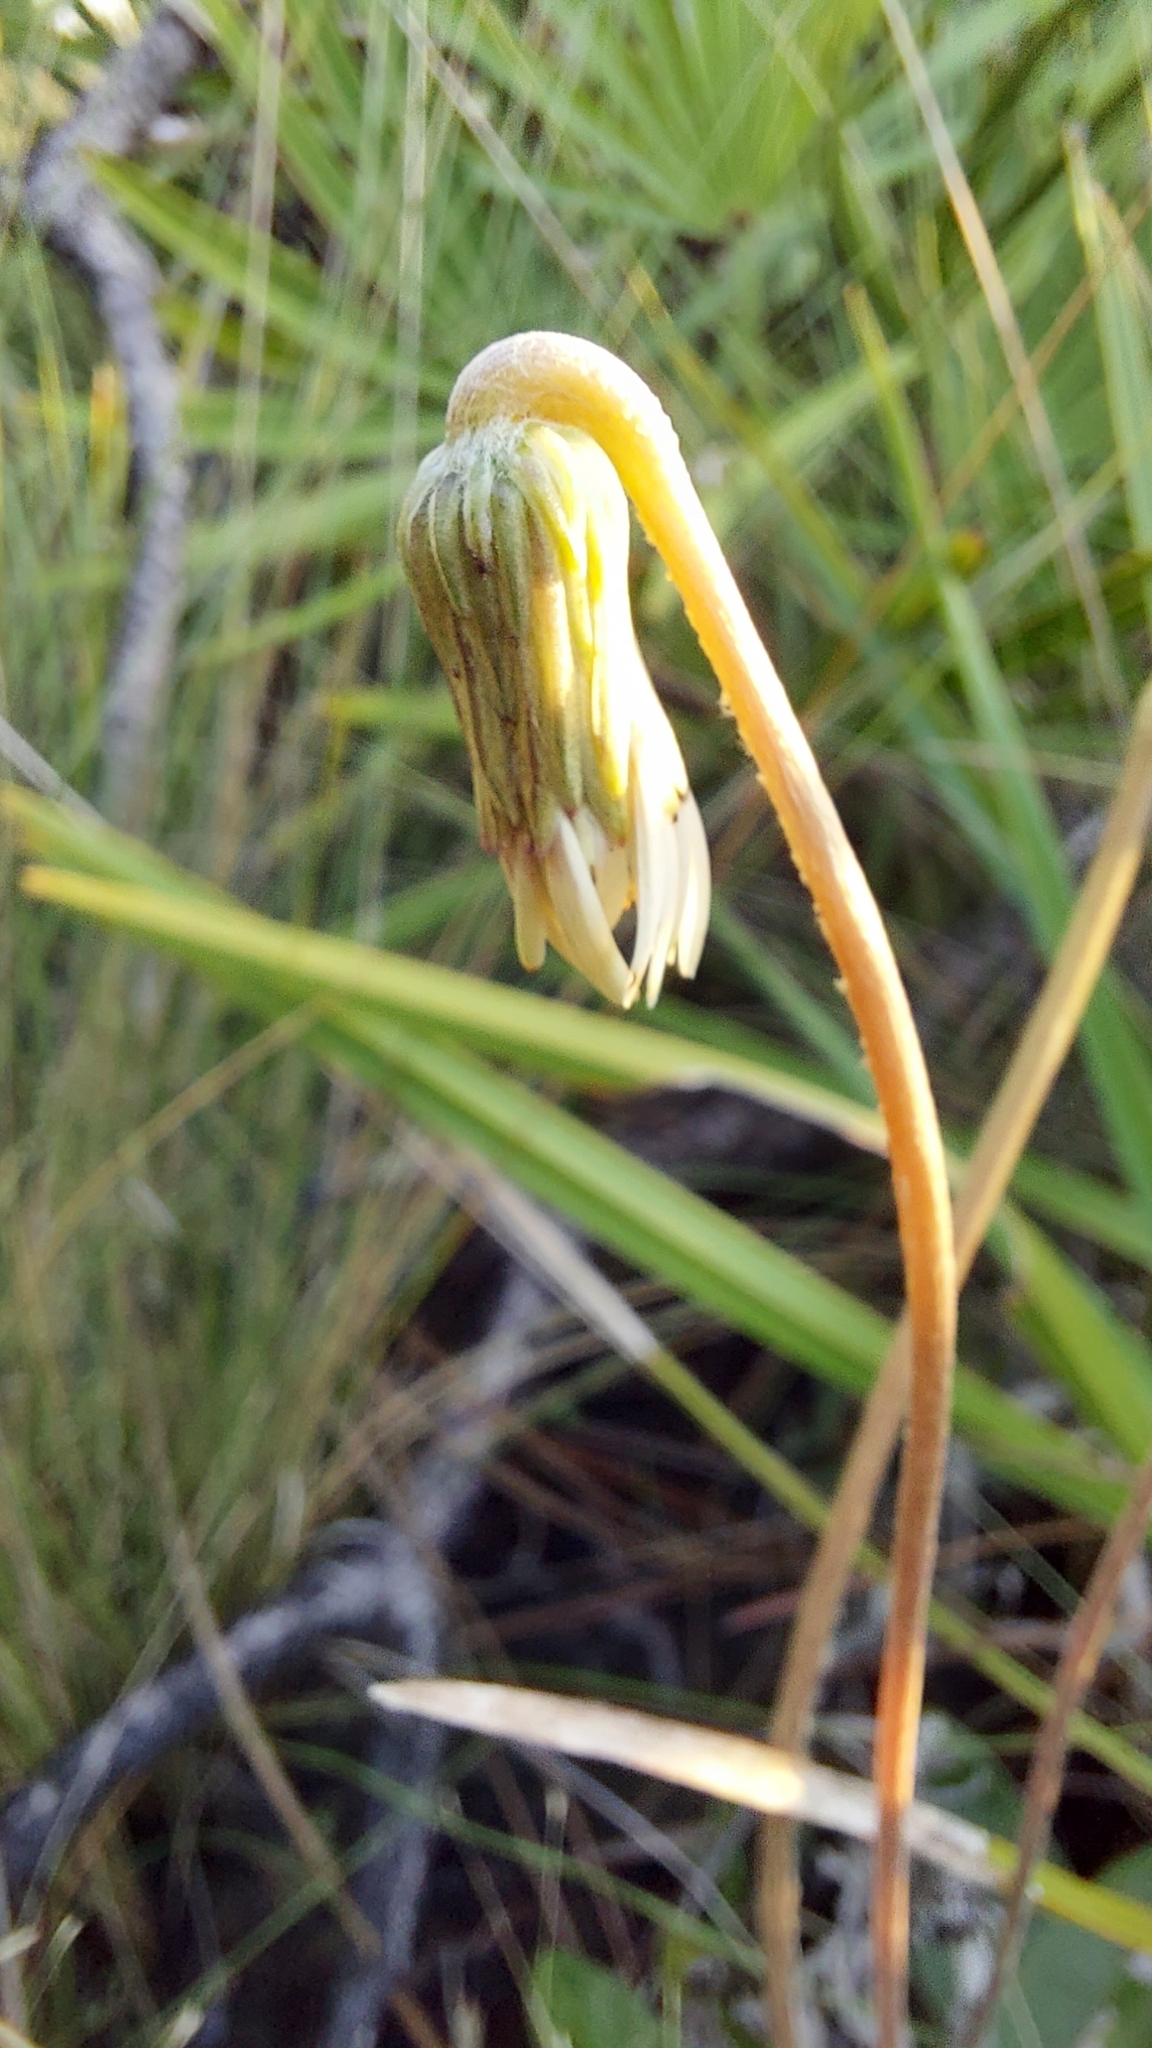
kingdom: Plantae
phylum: Tracheophyta
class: Magnoliopsida
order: Asterales
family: Asteraceae
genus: Chaptalia
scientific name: Chaptalia tomentosa
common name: Woolly sunbonnet
